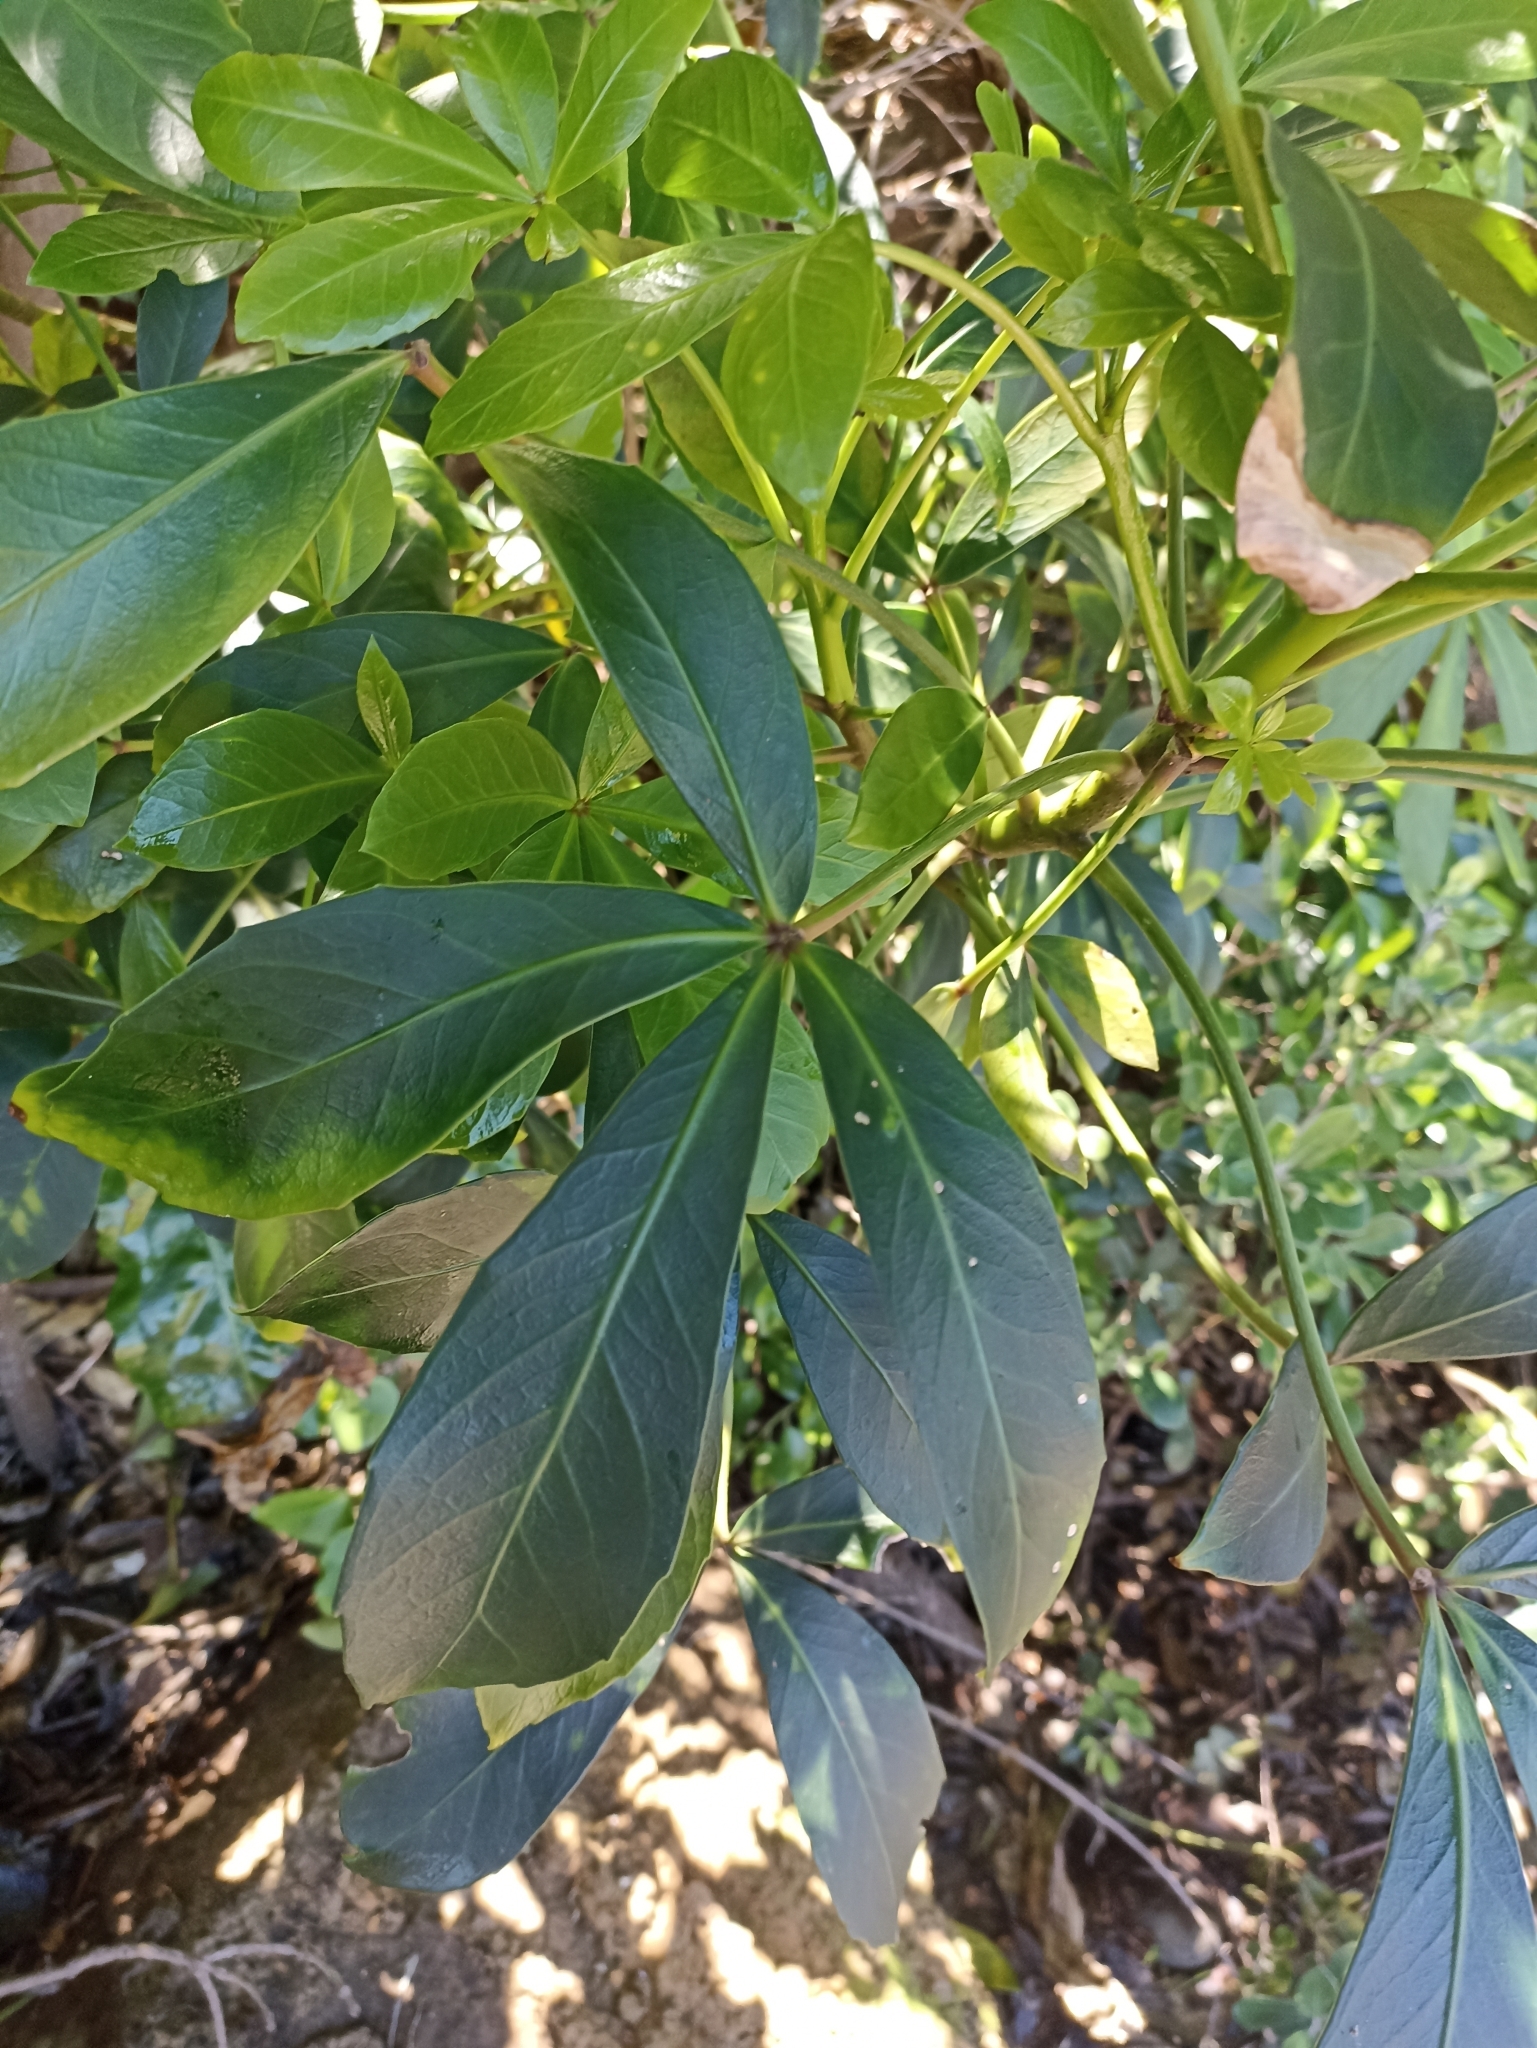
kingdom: Plantae
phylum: Tracheophyta
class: Magnoliopsida
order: Apiales
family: Araliaceae
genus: Pseudopanax
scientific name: Pseudopanax lessonii
